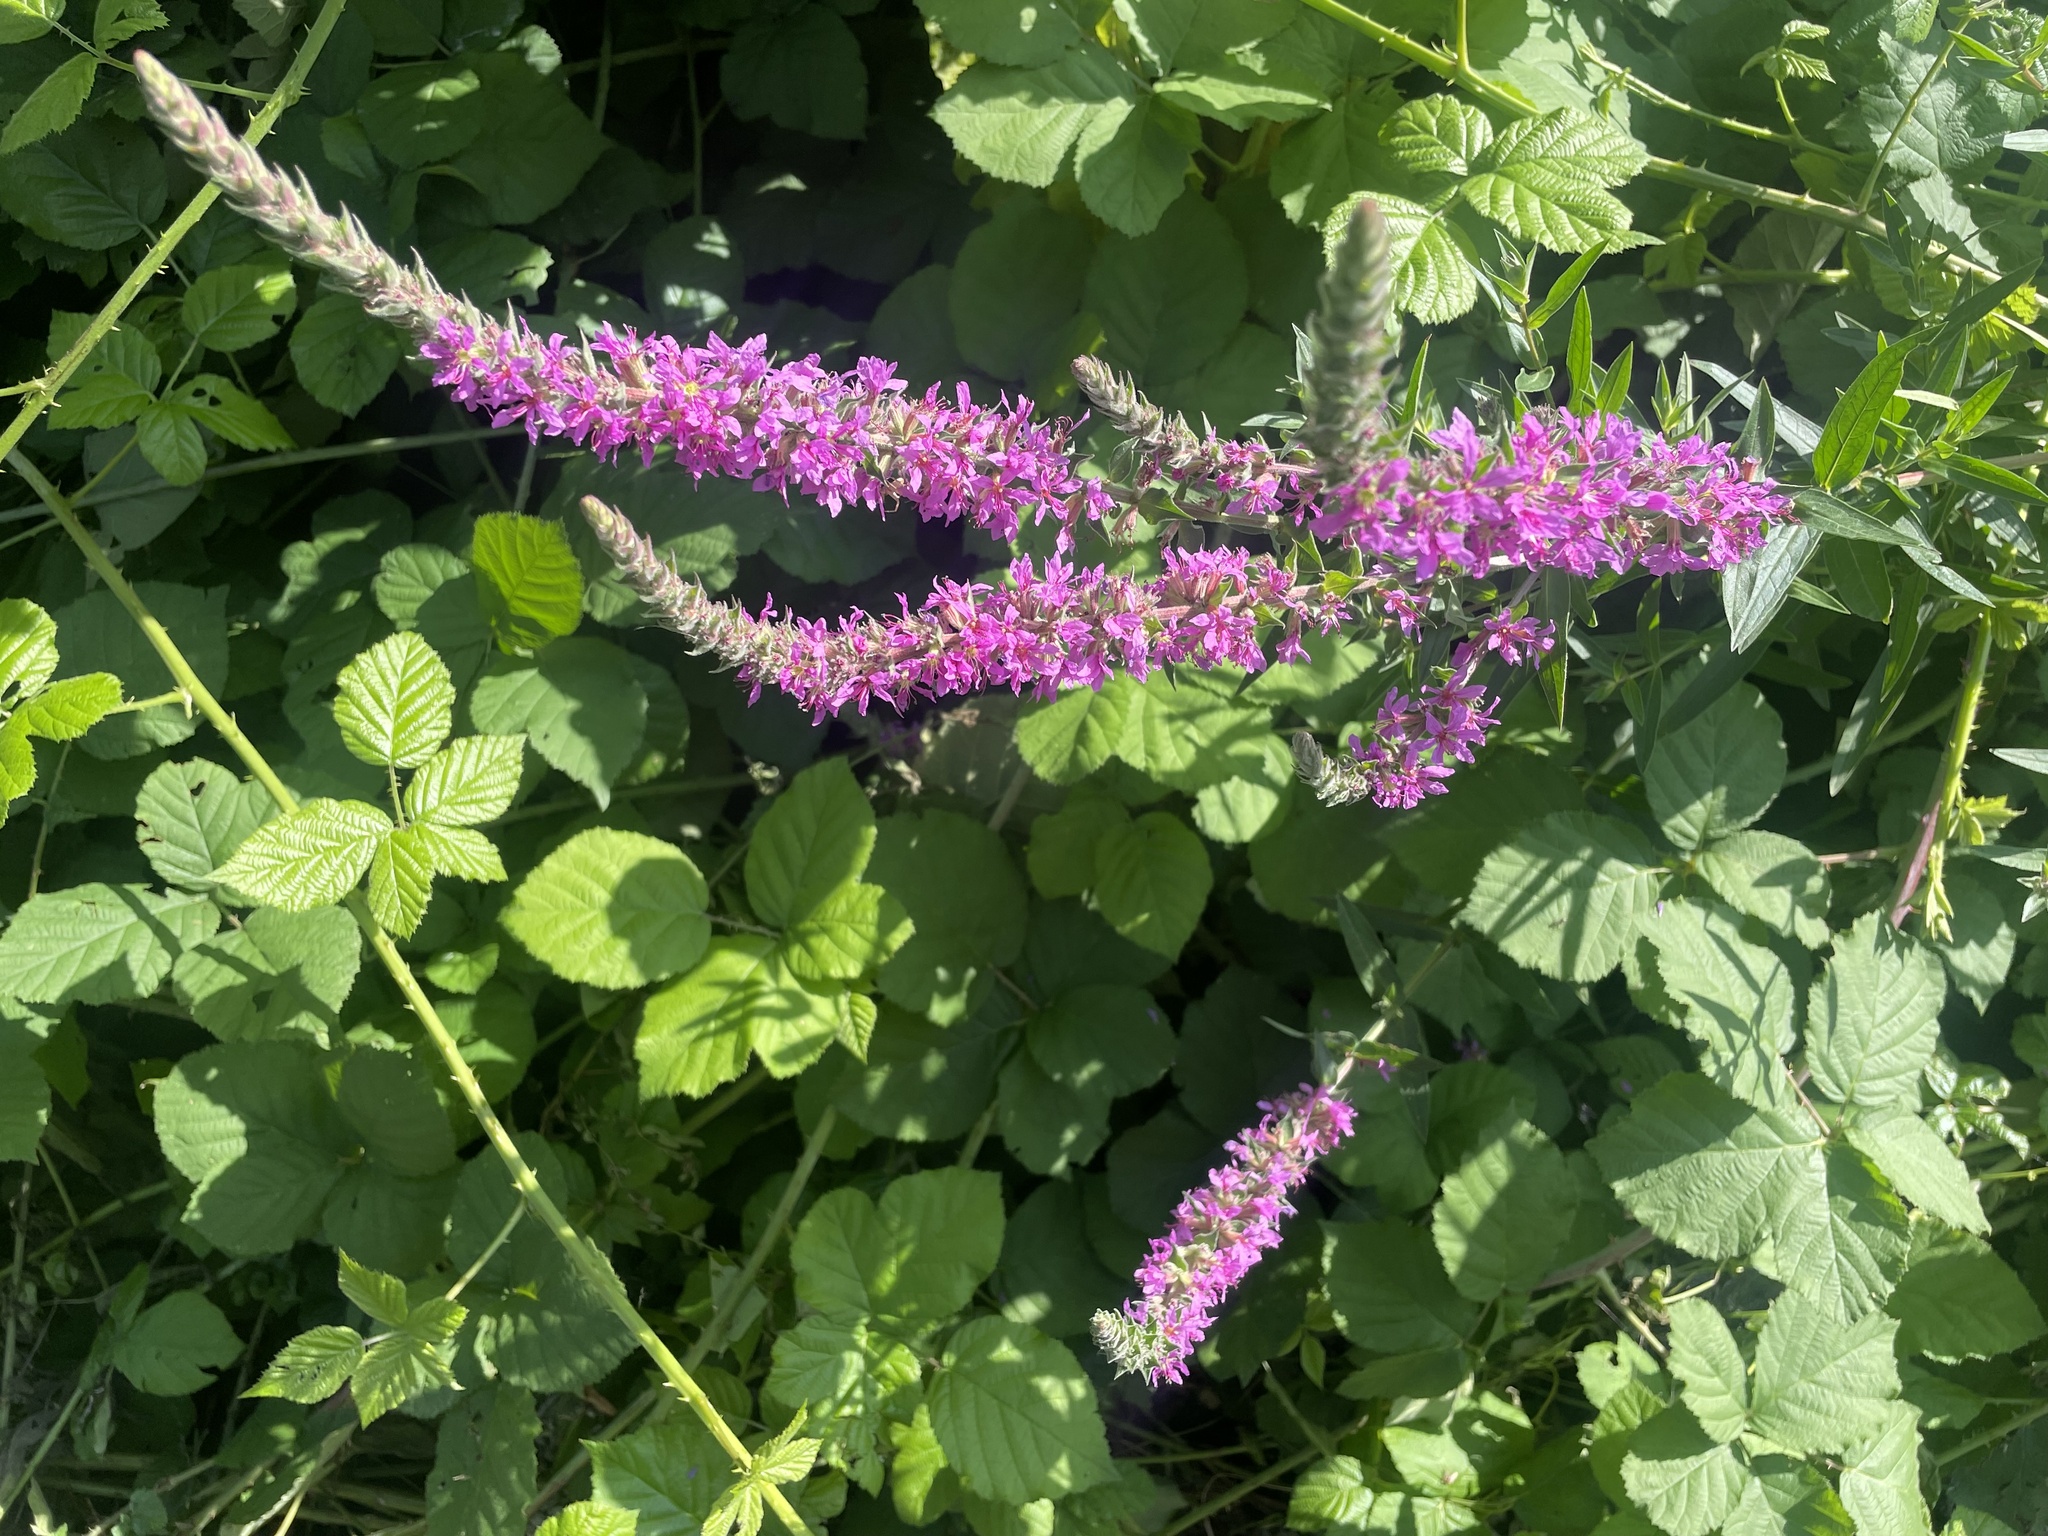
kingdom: Plantae
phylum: Tracheophyta
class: Magnoliopsida
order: Myrtales
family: Lythraceae
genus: Lythrum
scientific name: Lythrum salicaria
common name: Purple loosestrife
